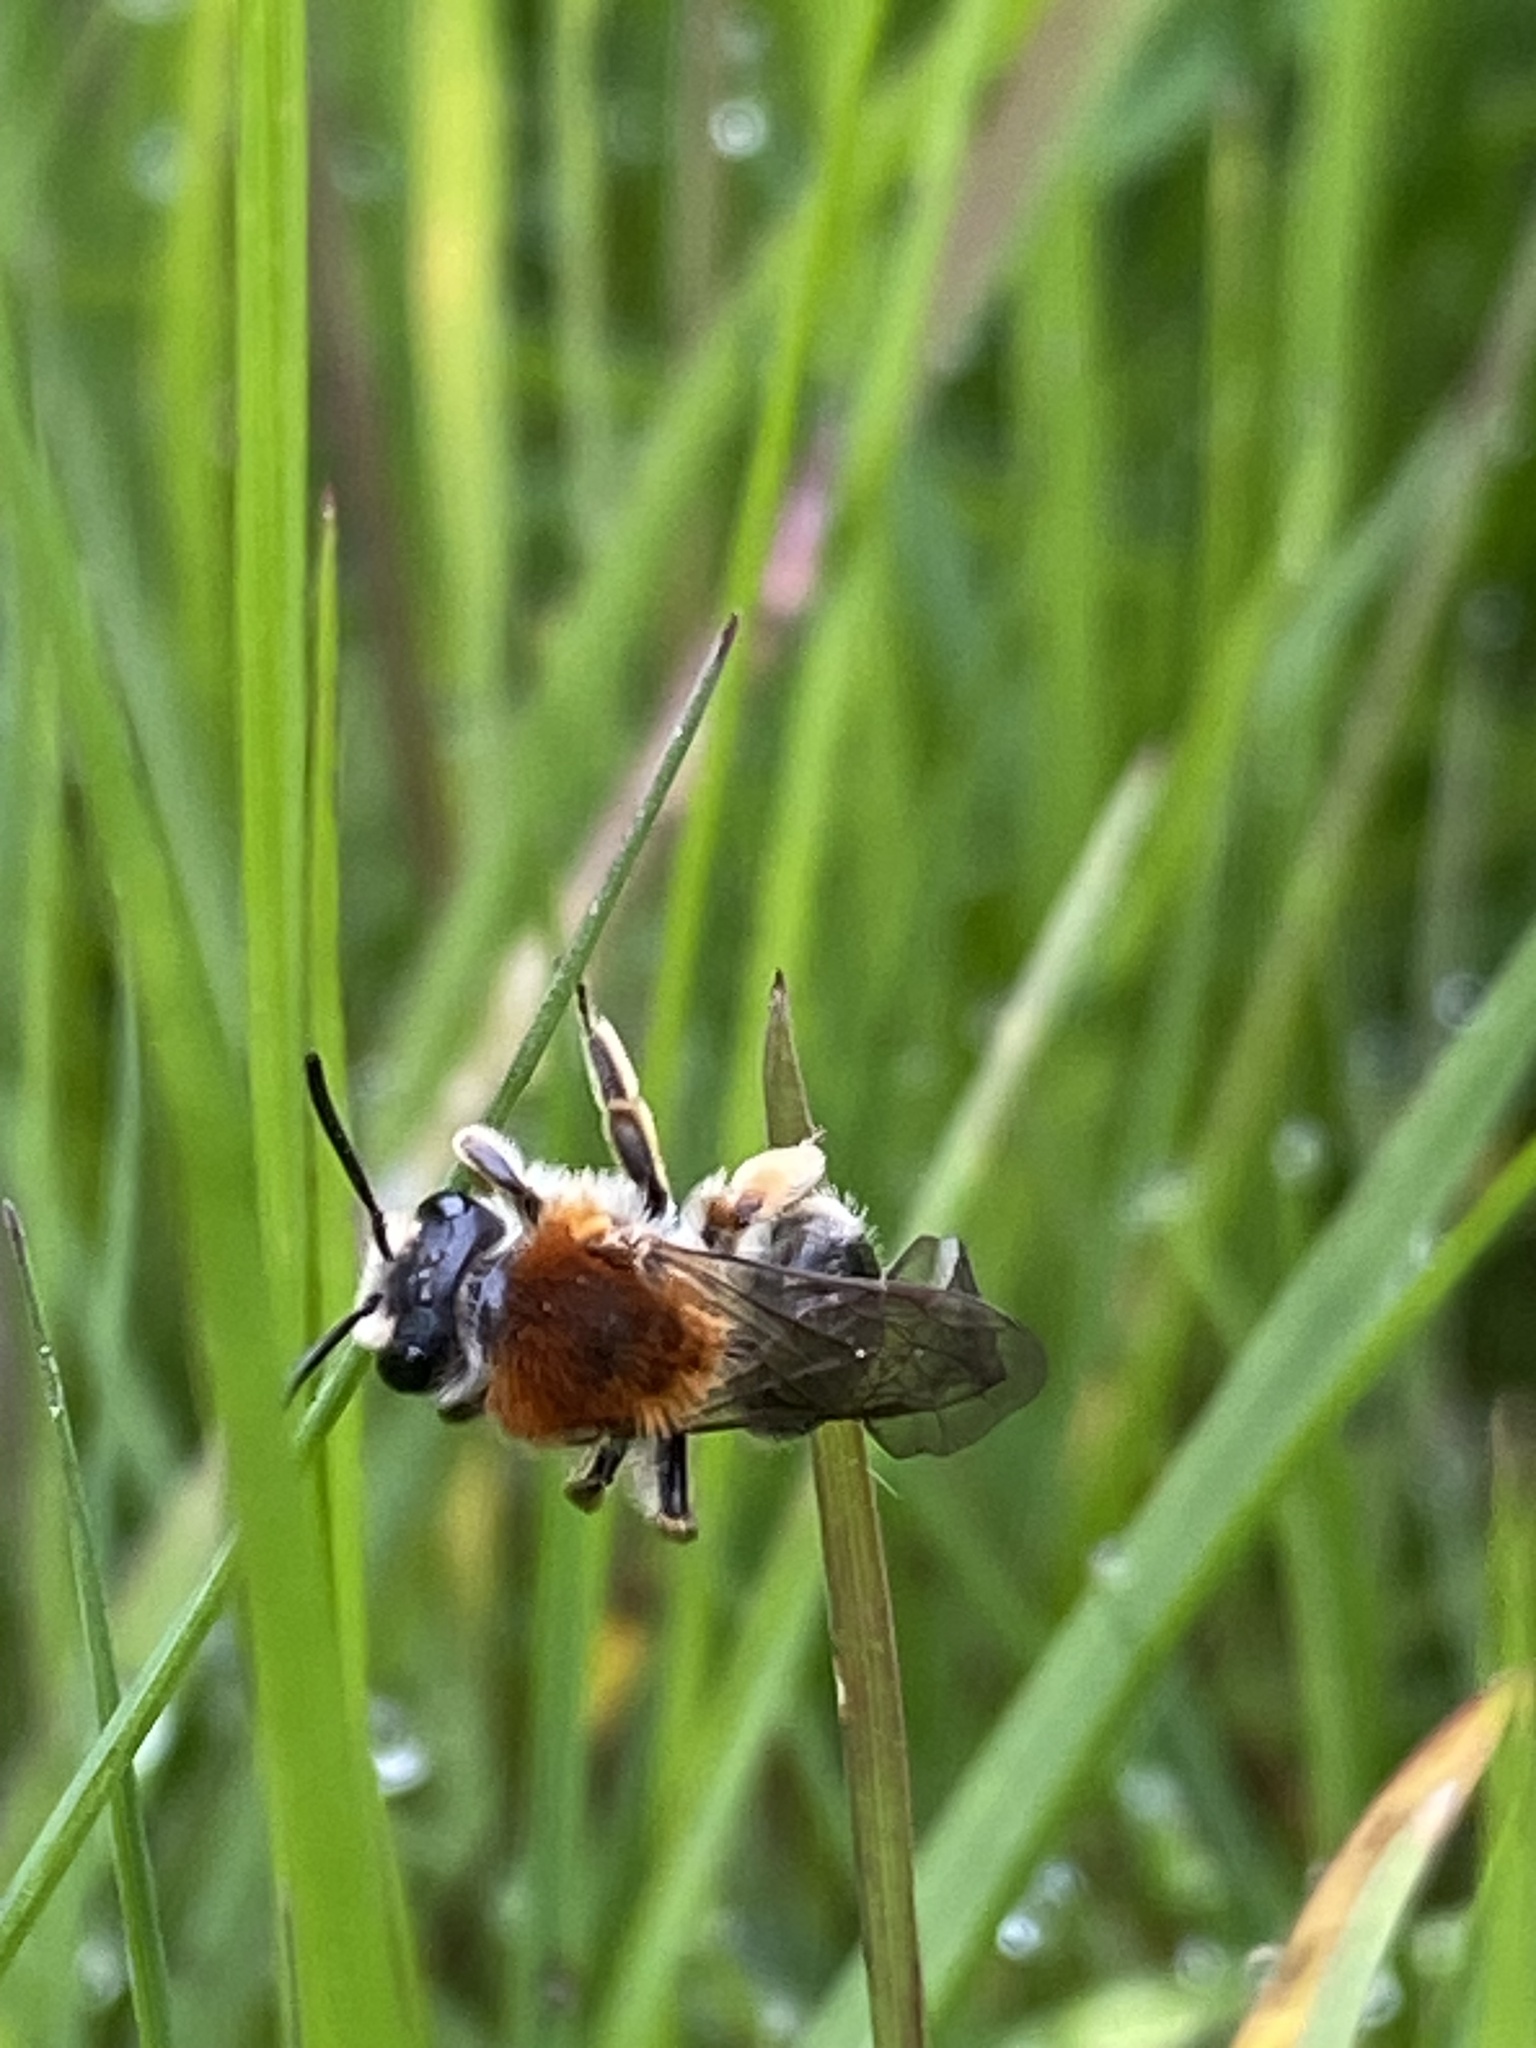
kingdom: Animalia
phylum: Arthropoda
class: Insecta
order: Hymenoptera
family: Andrenidae
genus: Andrena
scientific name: Andrena haemorrhoa
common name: Early mining bee
